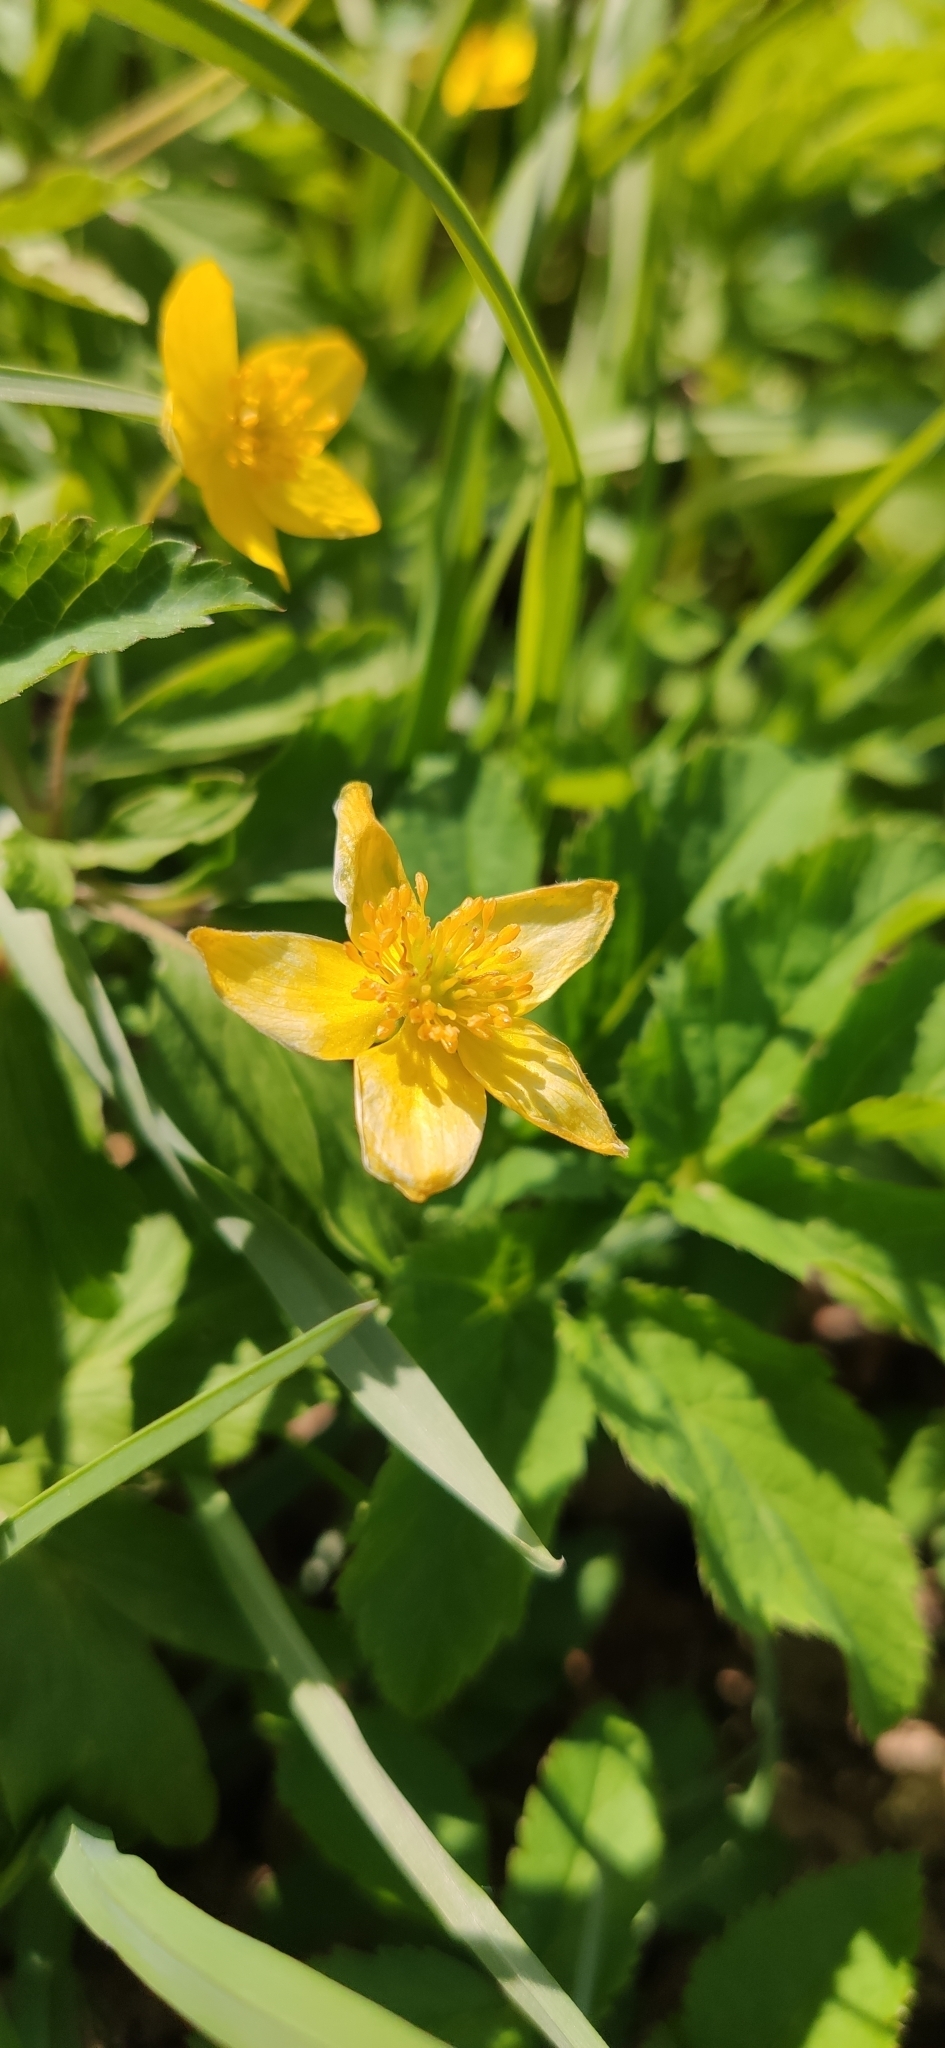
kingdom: Plantae
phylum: Tracheophyta
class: Magnoliopsida
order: Ranunculales
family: Ranunculaceae
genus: Anemone
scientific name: Anemone ranunculoides
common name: Yellow anemone
